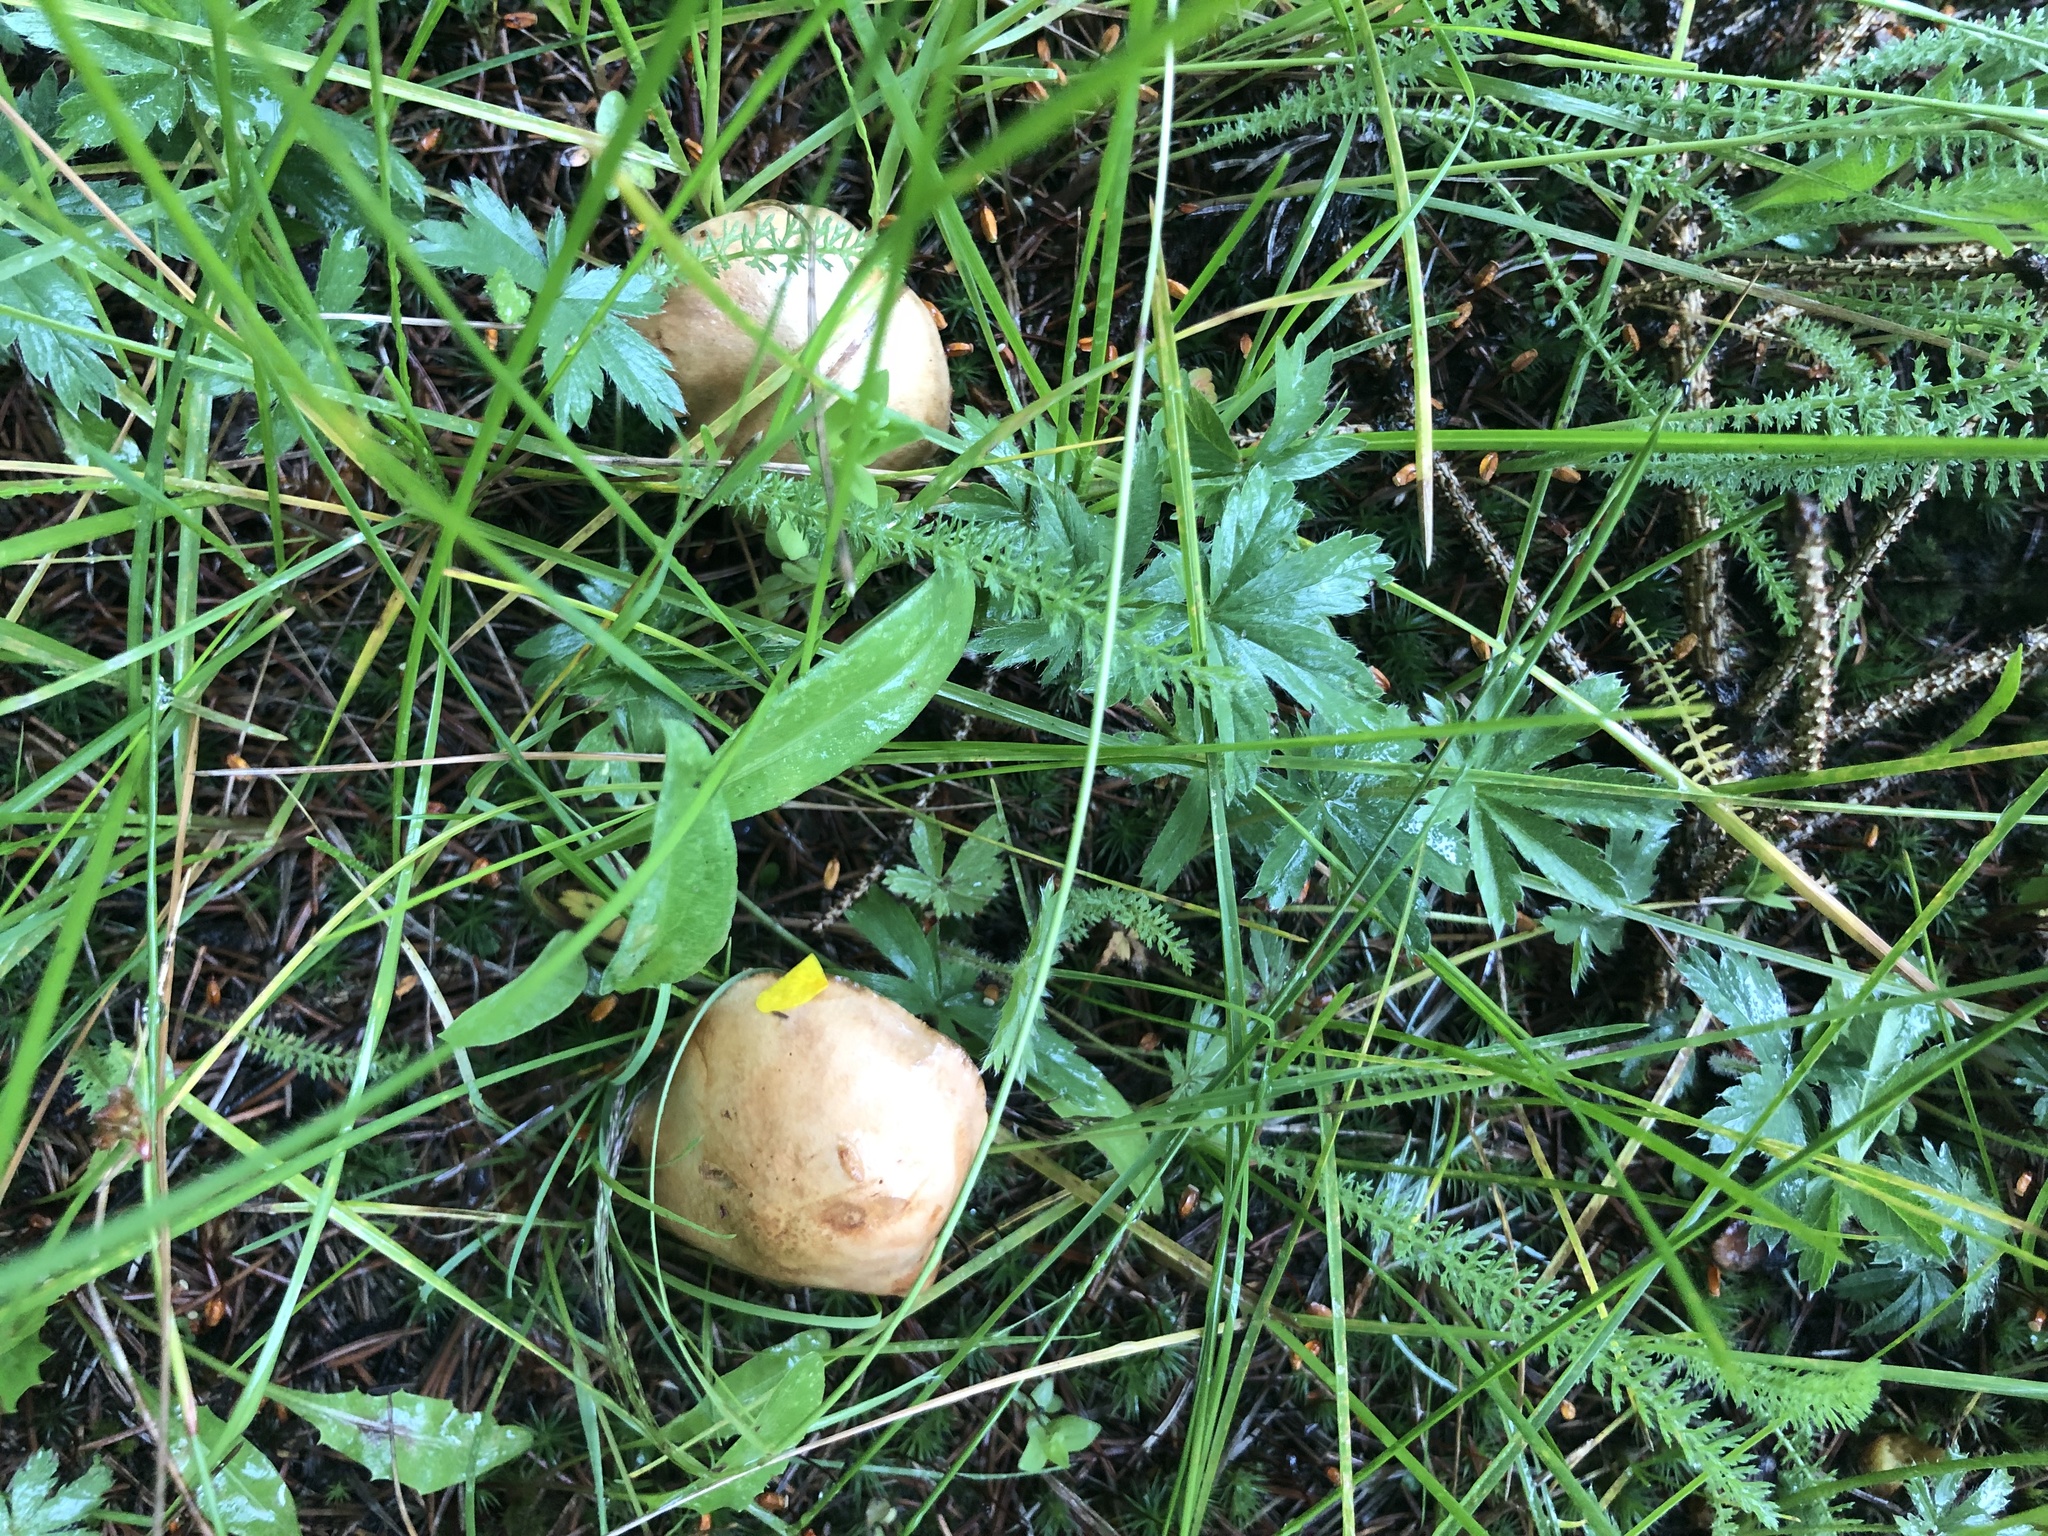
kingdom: Fungi
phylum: Basidiomycota
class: Agaricomycetes
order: Boletales
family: Boletaceae
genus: Chalciporus
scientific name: Chalciporus piperatus
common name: Peppery bolete
